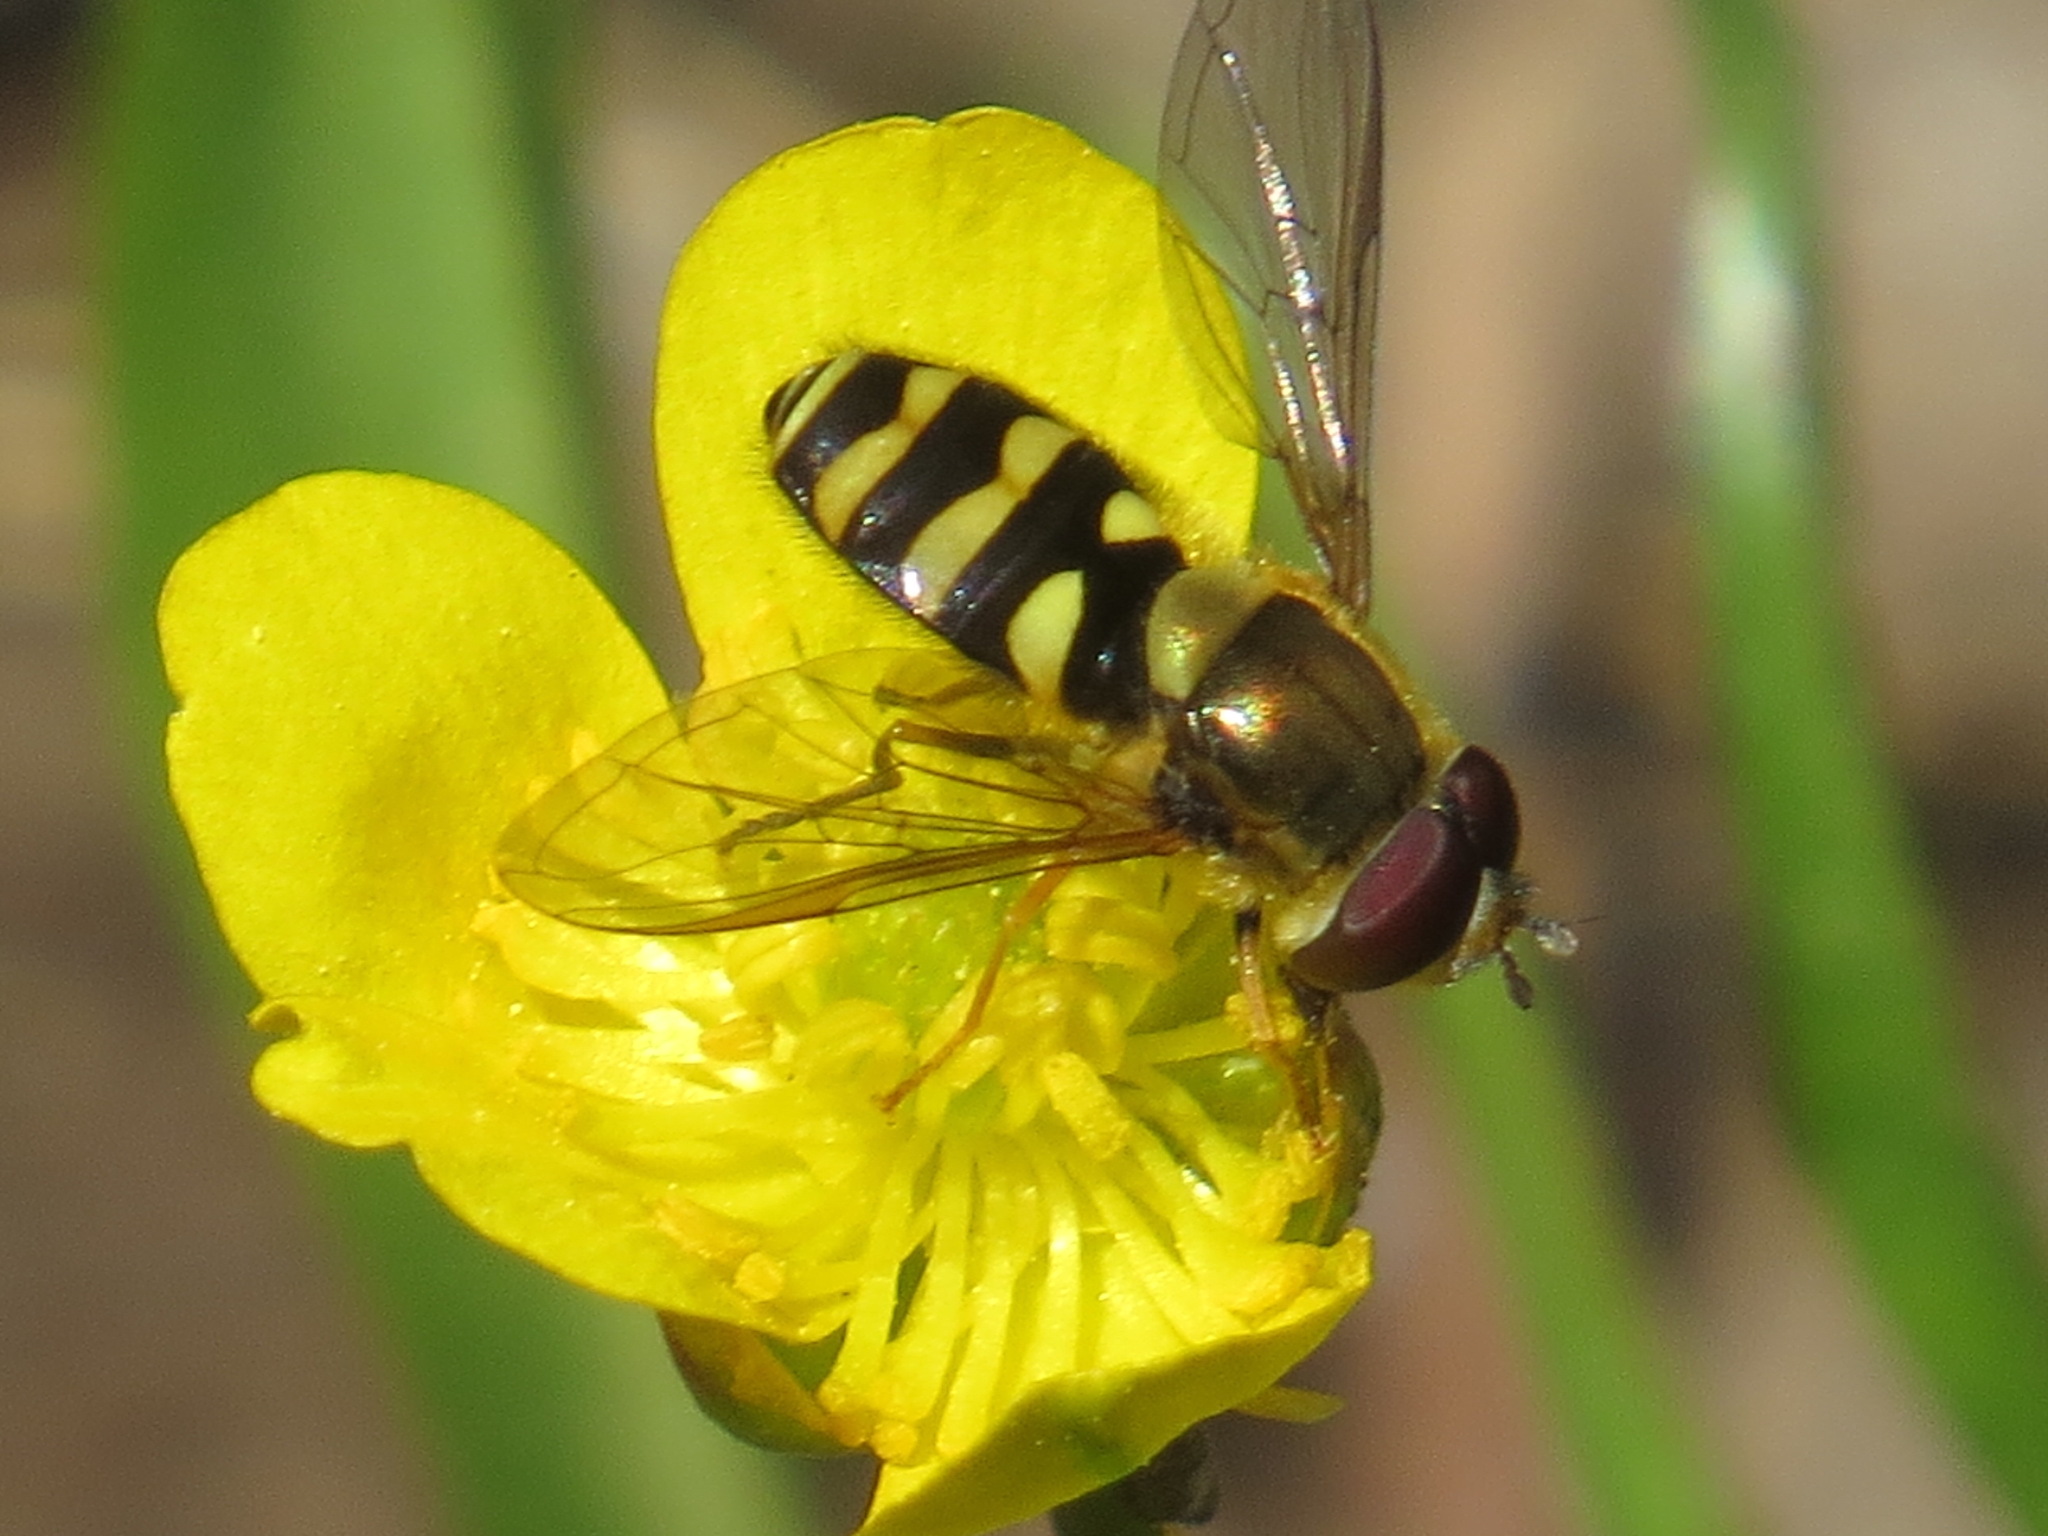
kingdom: Animalia
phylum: Arthropoda
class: Insecta
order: Diptera
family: Syrphidae
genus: Syrphus
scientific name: Syrphus opinator
